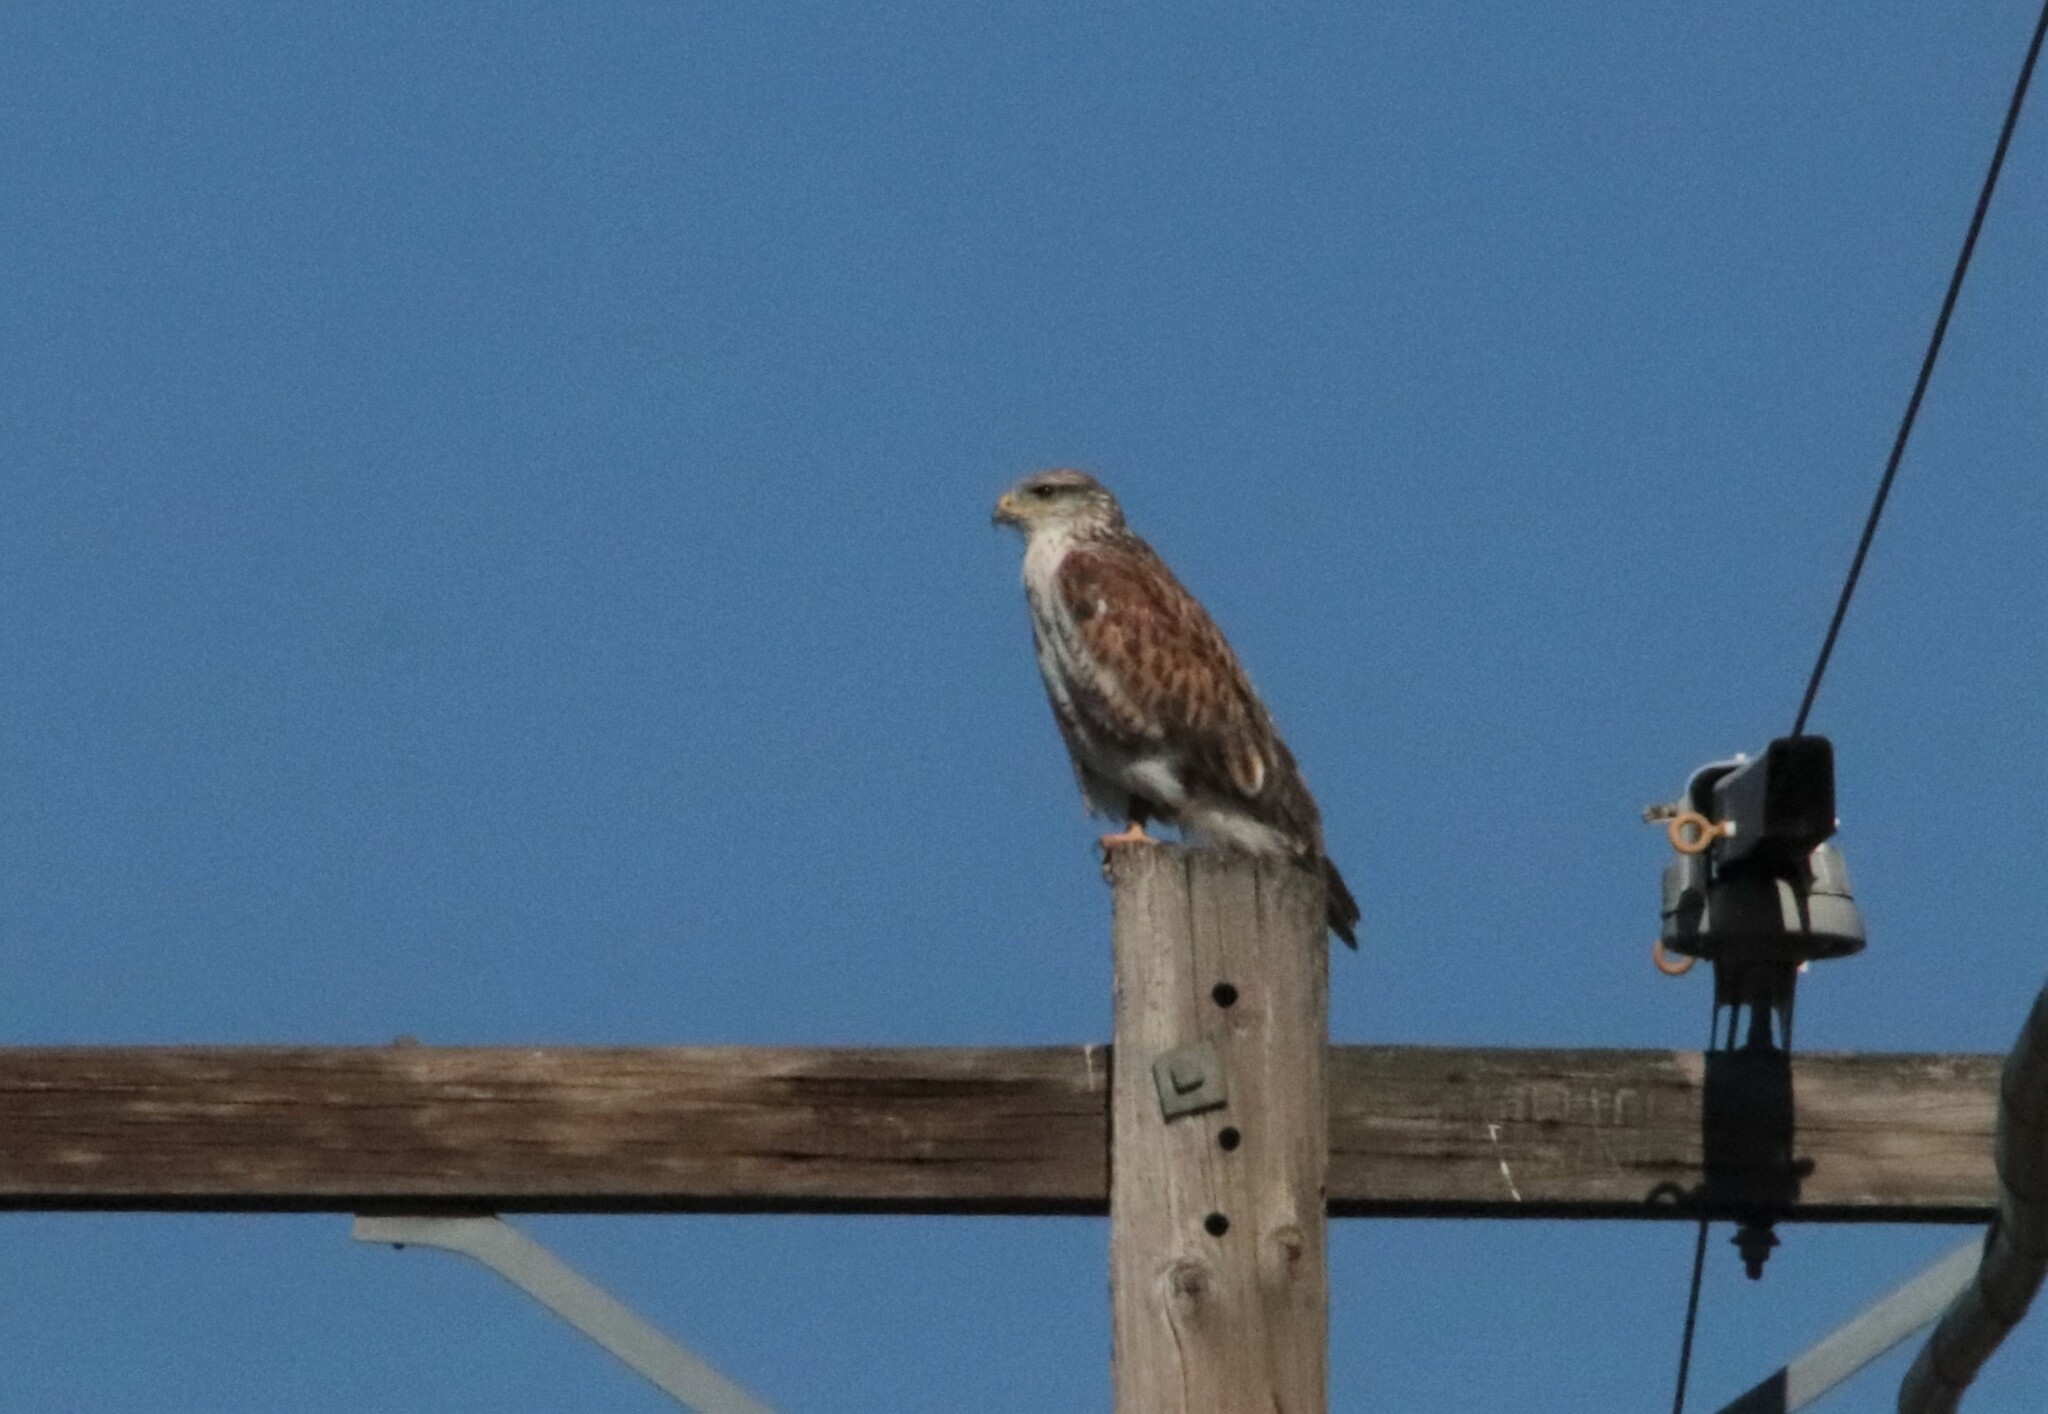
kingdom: Animalia
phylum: Chordata
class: Aves
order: Accipitriformes
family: Accipitridae
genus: Buteo
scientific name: Buteo regalis
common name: Ferruginous hawk
